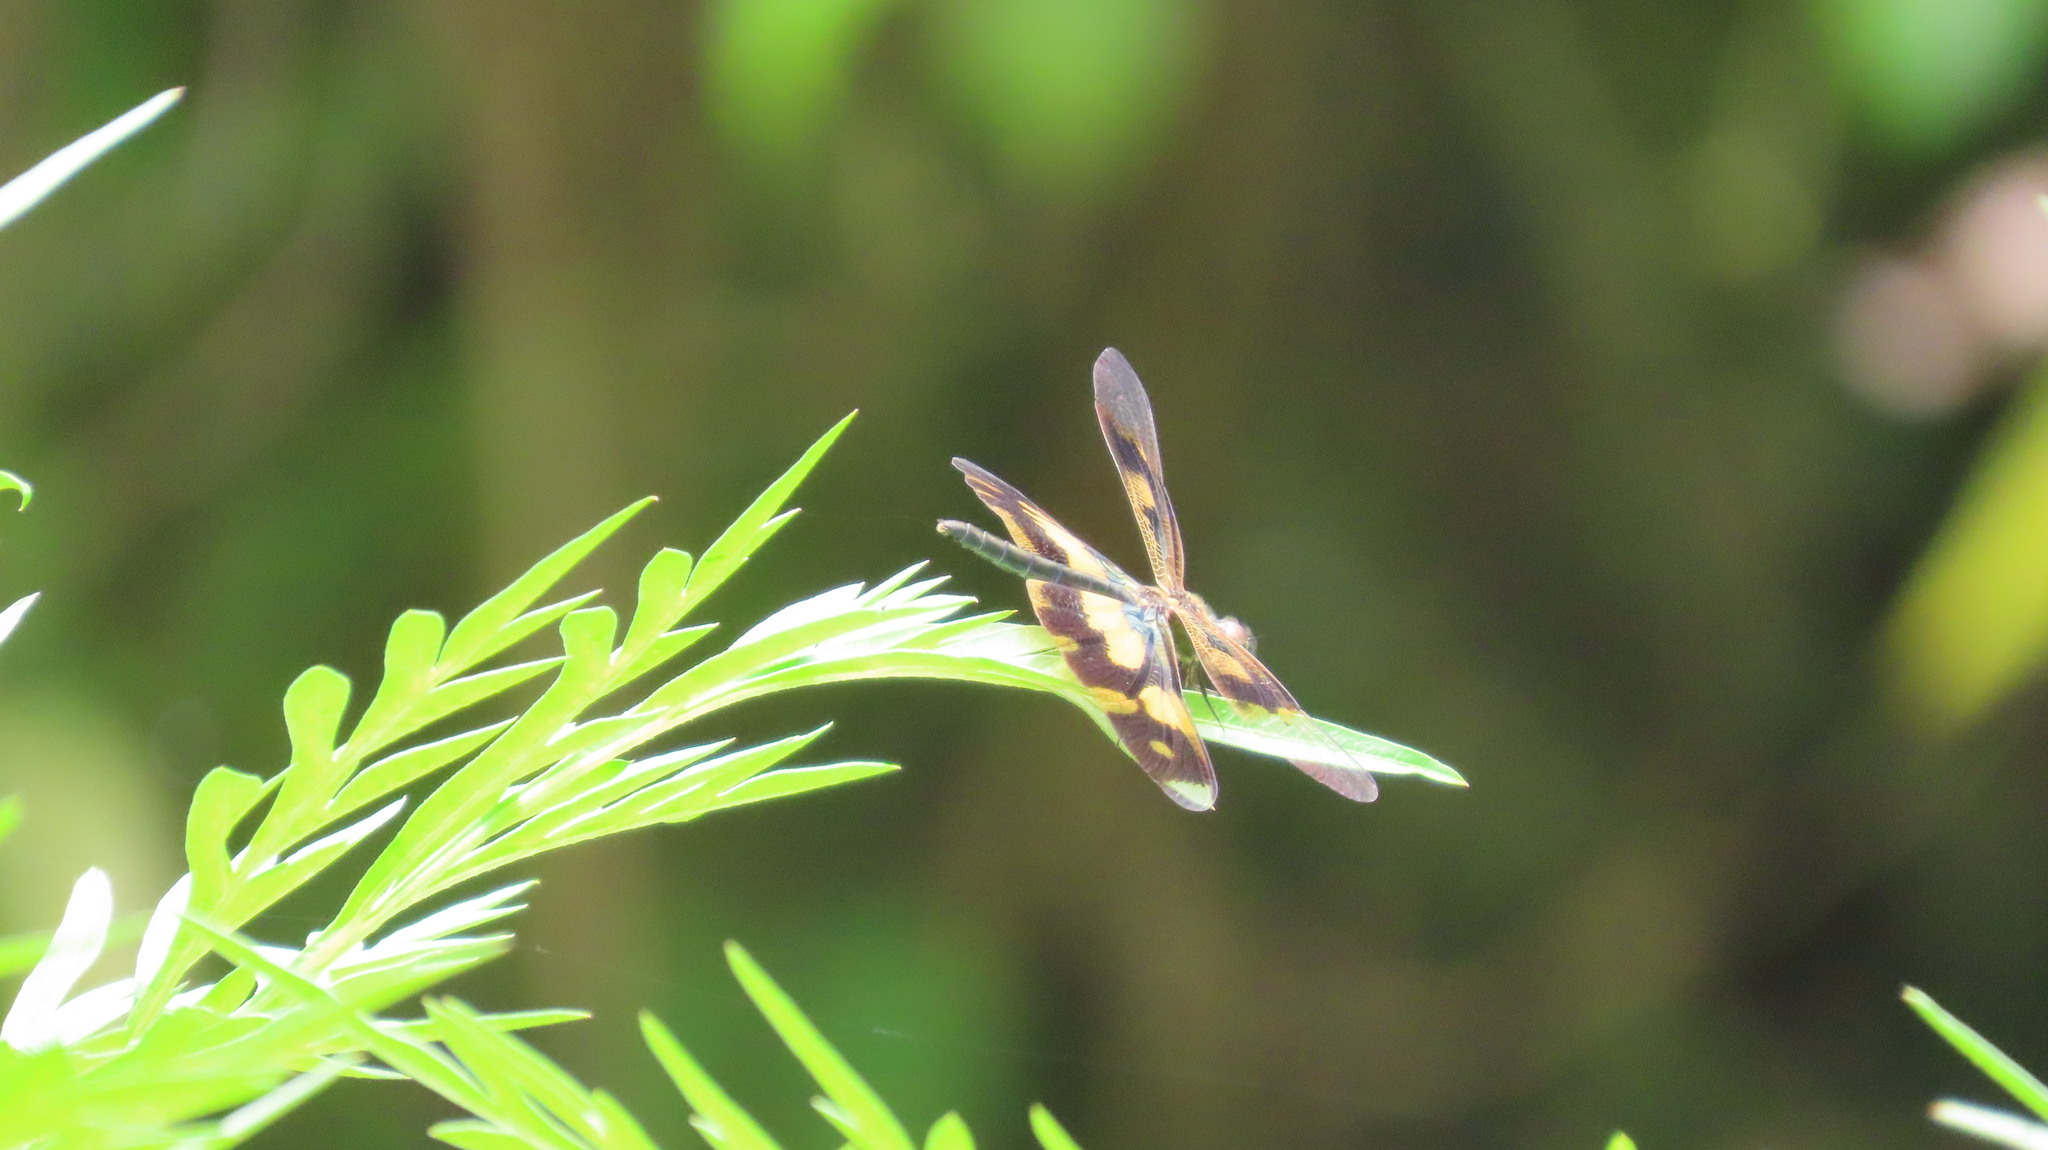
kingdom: Animalia
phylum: Arthropoda
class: Insecta
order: Odonata
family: Libellulidae
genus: Rhyothemis
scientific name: Rhyothemis variegata
